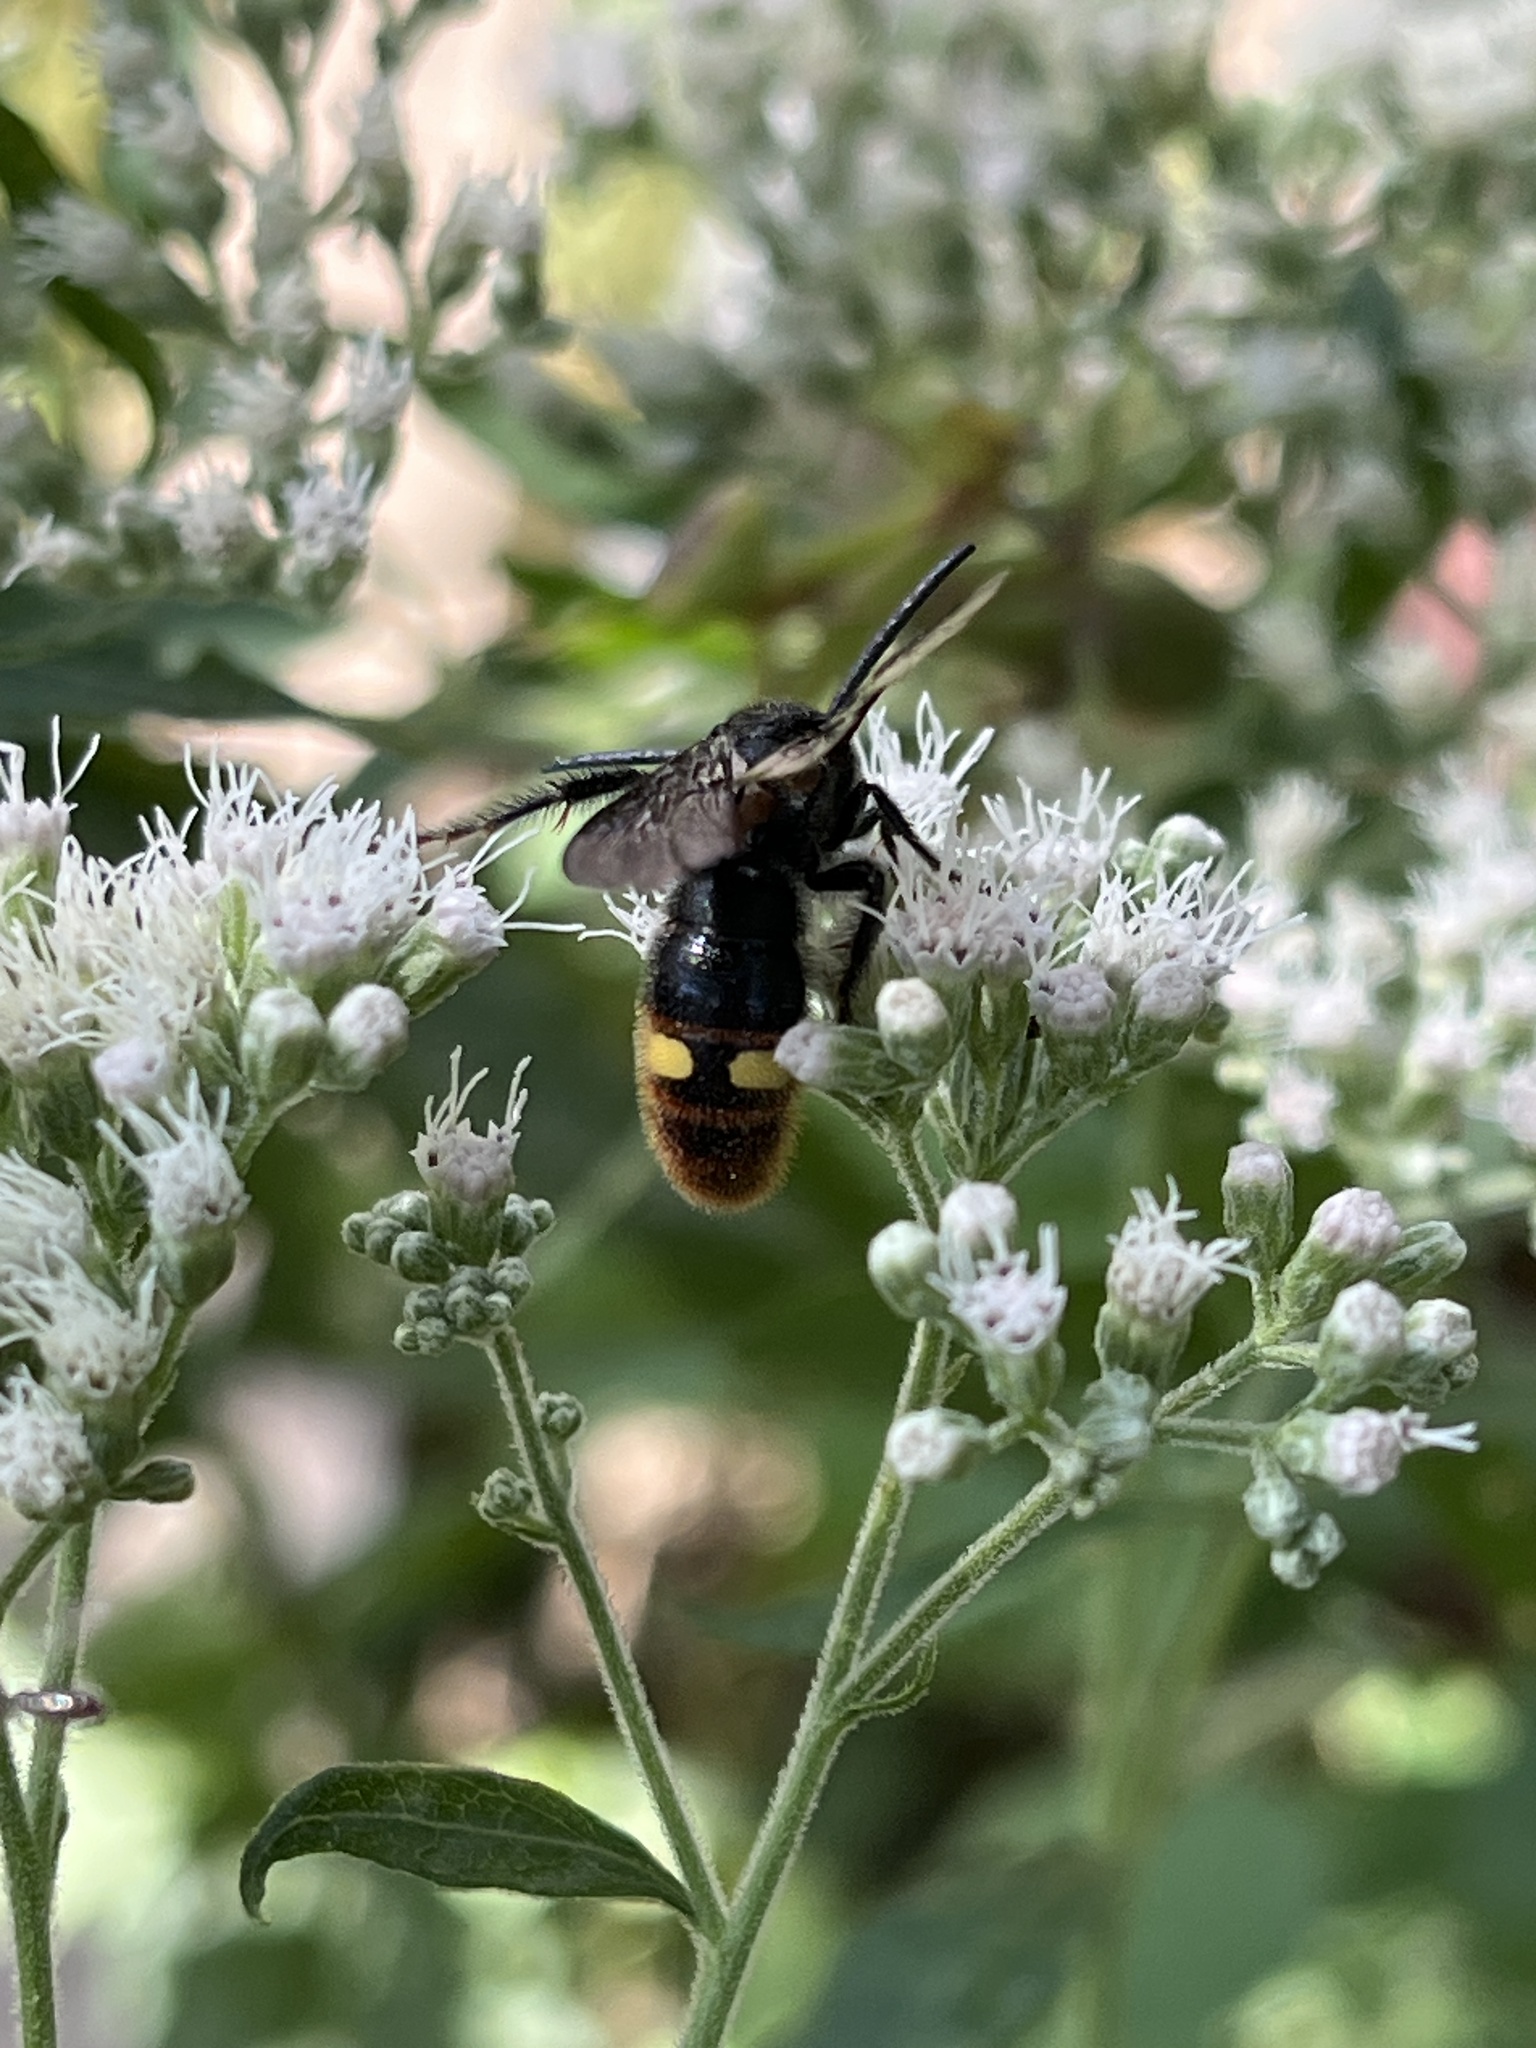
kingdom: Animalia
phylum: Arthropoda
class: Insecta
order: Hymenoptera
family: Scoliidae
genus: Scolia
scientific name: Scolia dubia
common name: Blue-winged scoliid wasp
